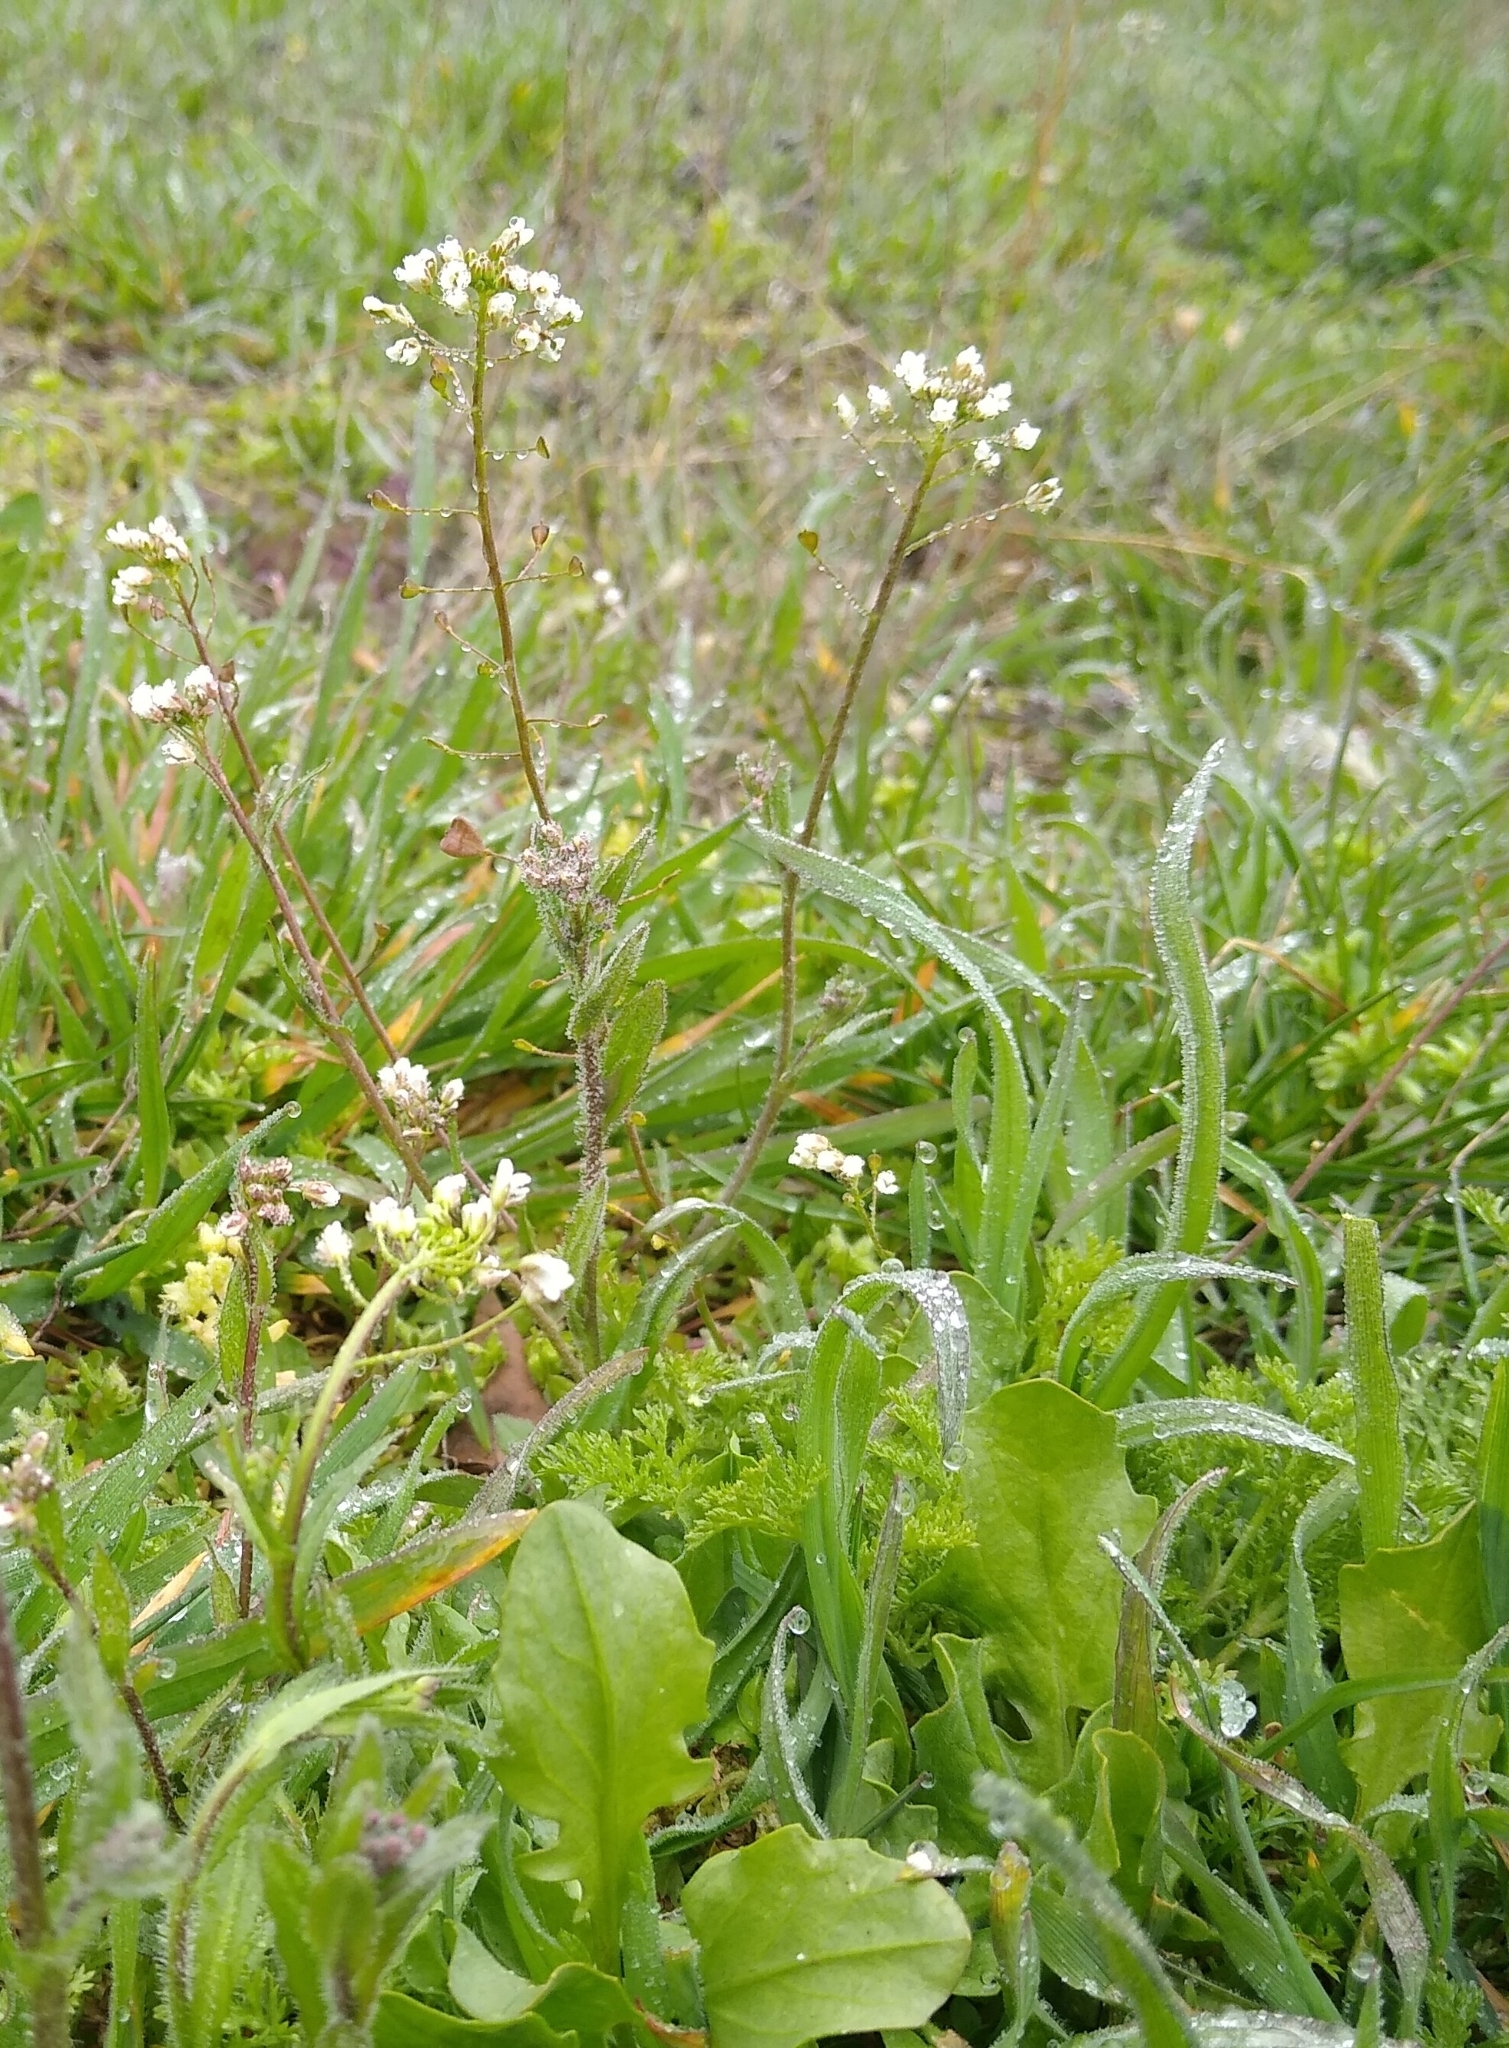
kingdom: Plantae
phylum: Tracheophyta
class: Magnoliopsida
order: Brassicales
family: Brassicaceae
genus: Capsella
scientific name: Capsella bursa-pastoris
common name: Shepherd's purse
